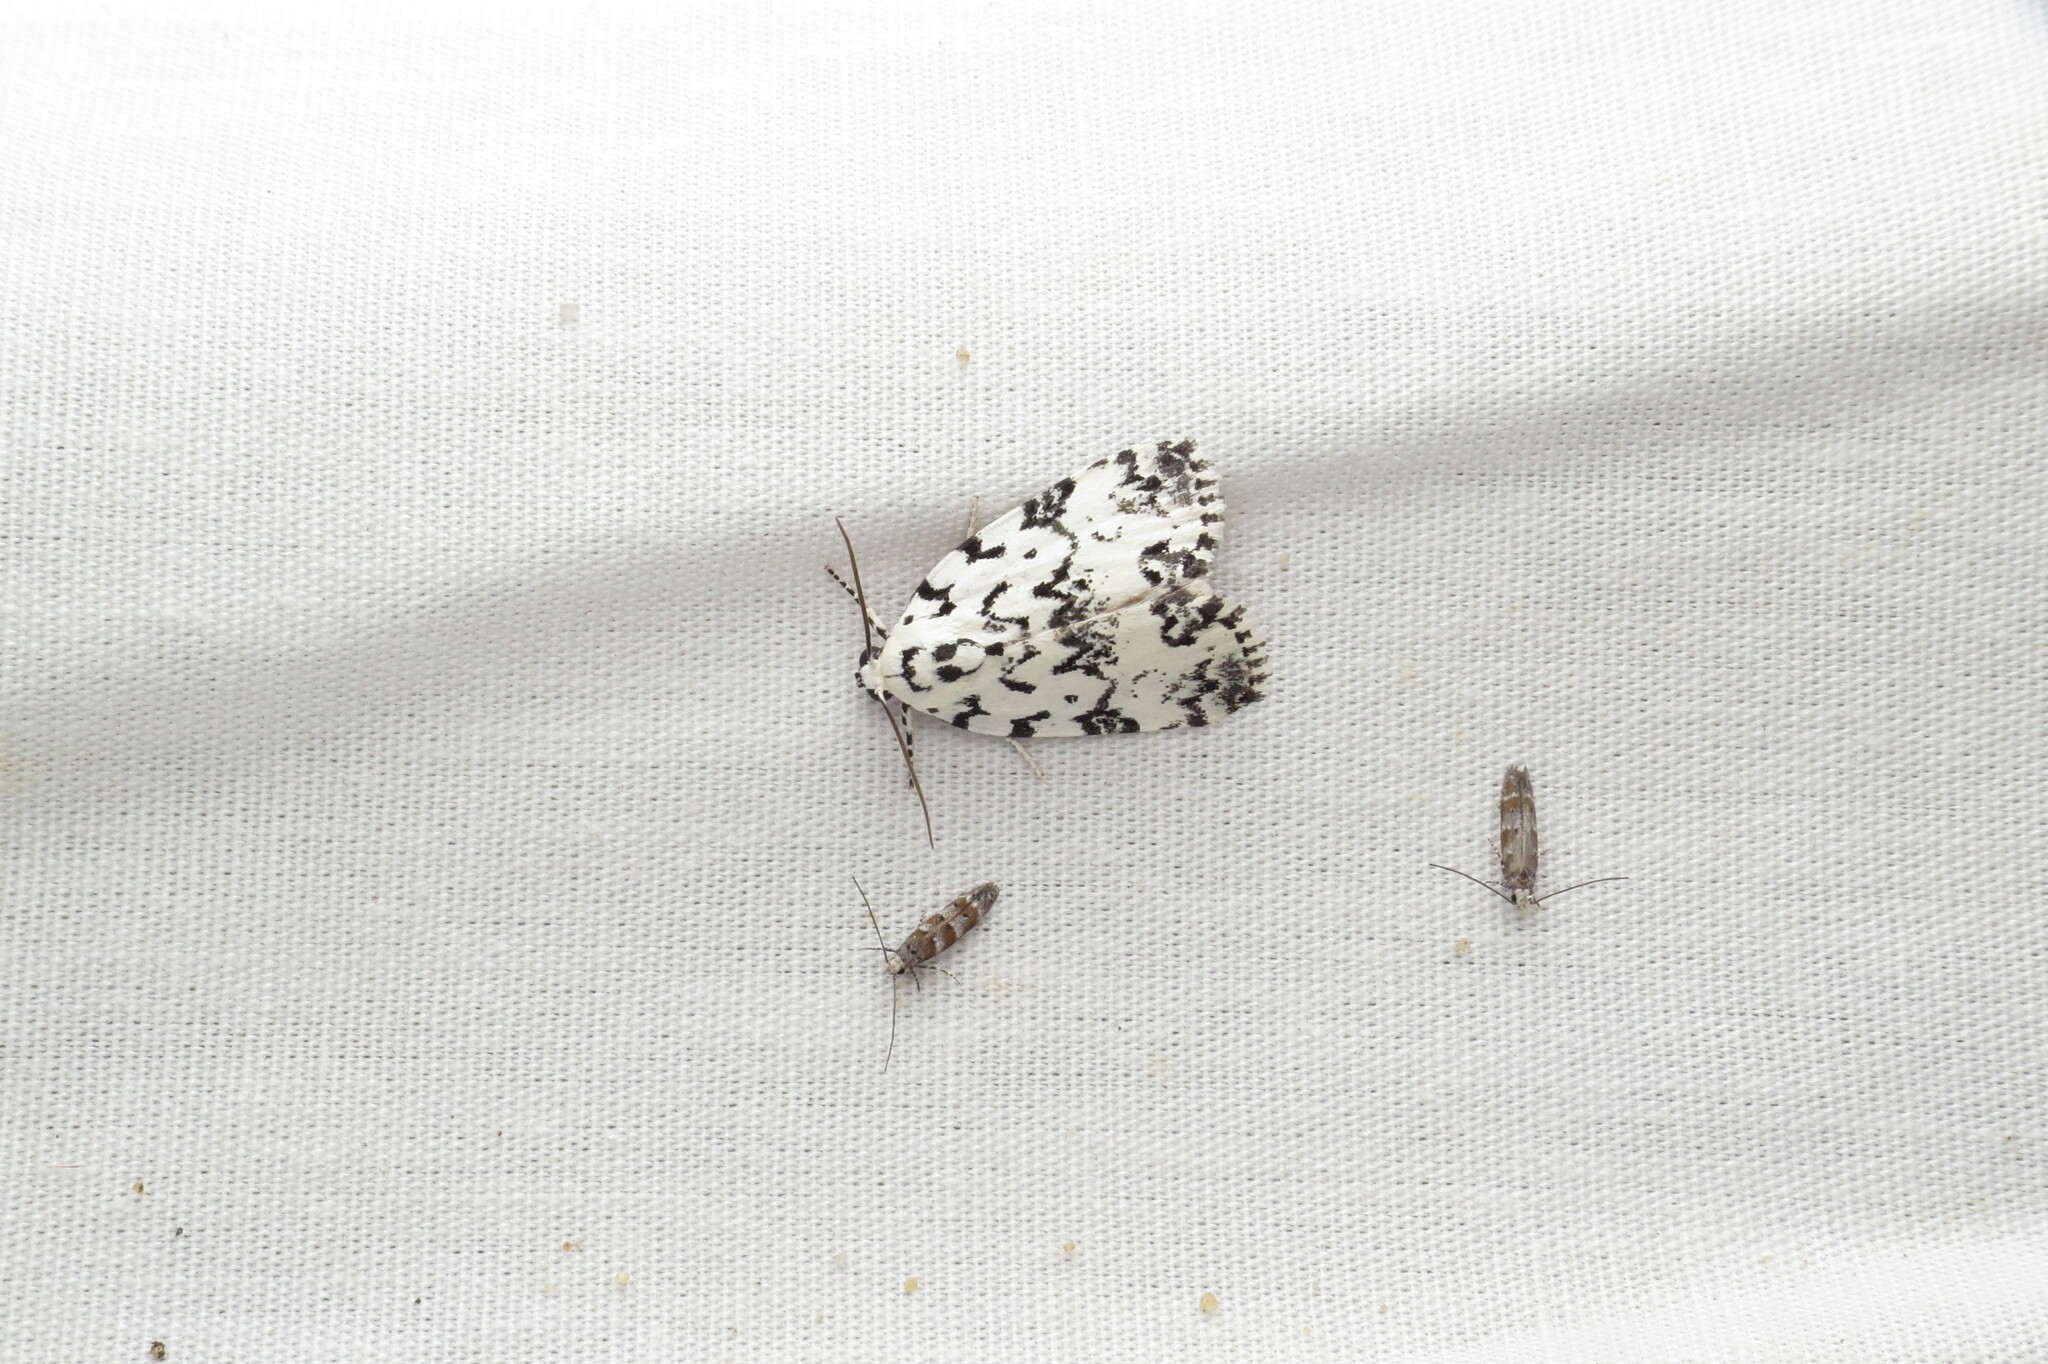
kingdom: Animalia
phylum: Arthropoda
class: Insecta
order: Lepidoptera
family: Noctuidae
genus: Polygrammate
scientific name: Polygrammate hebraeicum
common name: Hebrew moth
